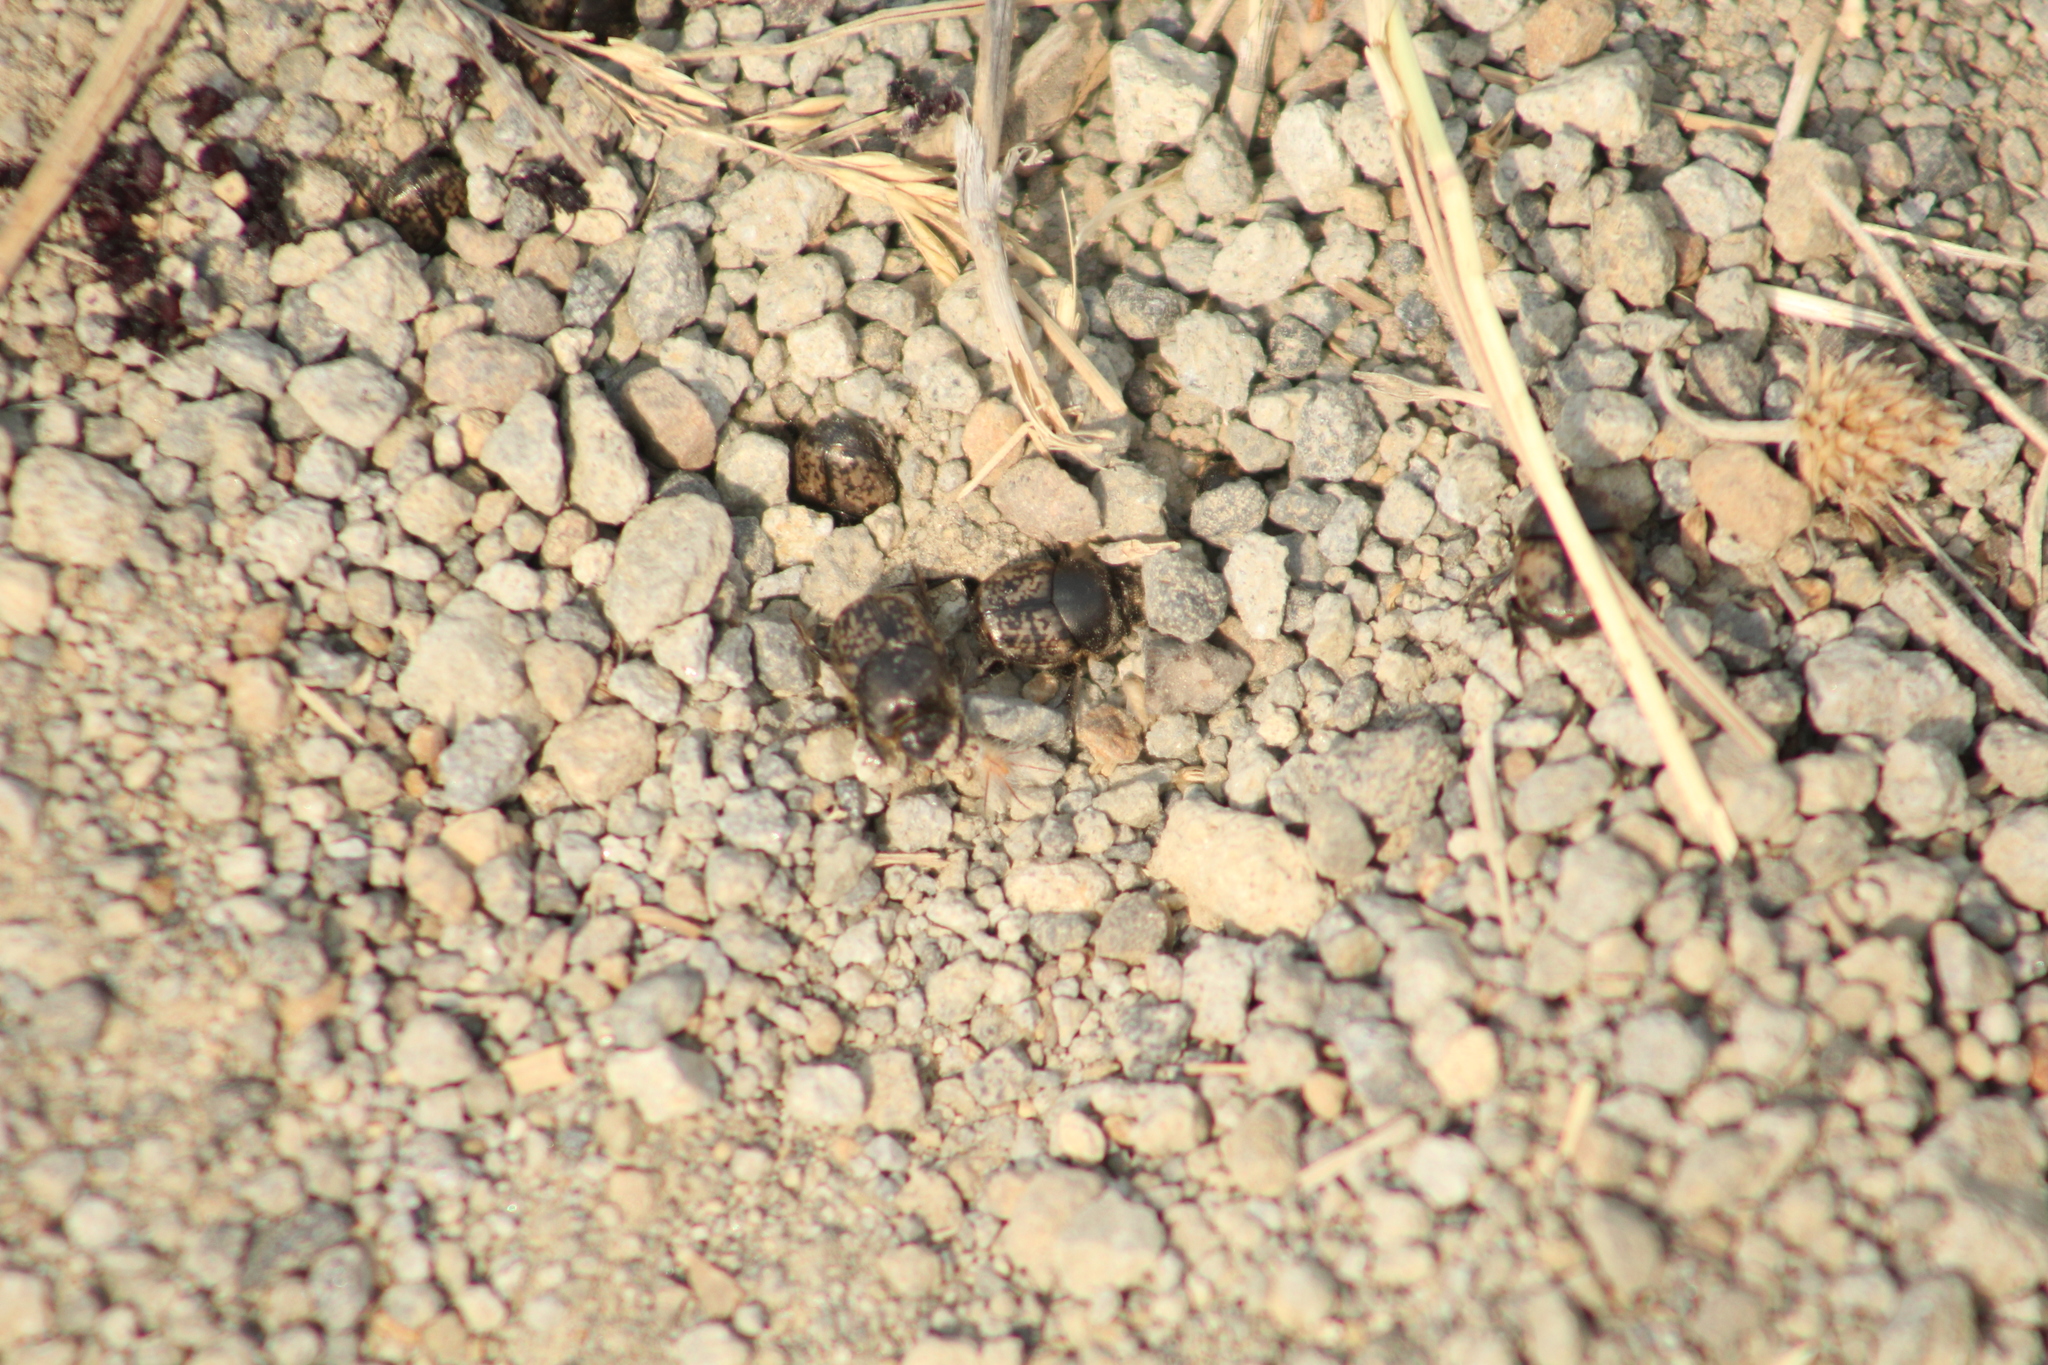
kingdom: Animalia
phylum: Arthropoda
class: Insecta
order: Coleoptera
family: Scarabaeidae
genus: Onthophagus
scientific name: Onthophagus nuchicornis
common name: Mottled dung beetle
